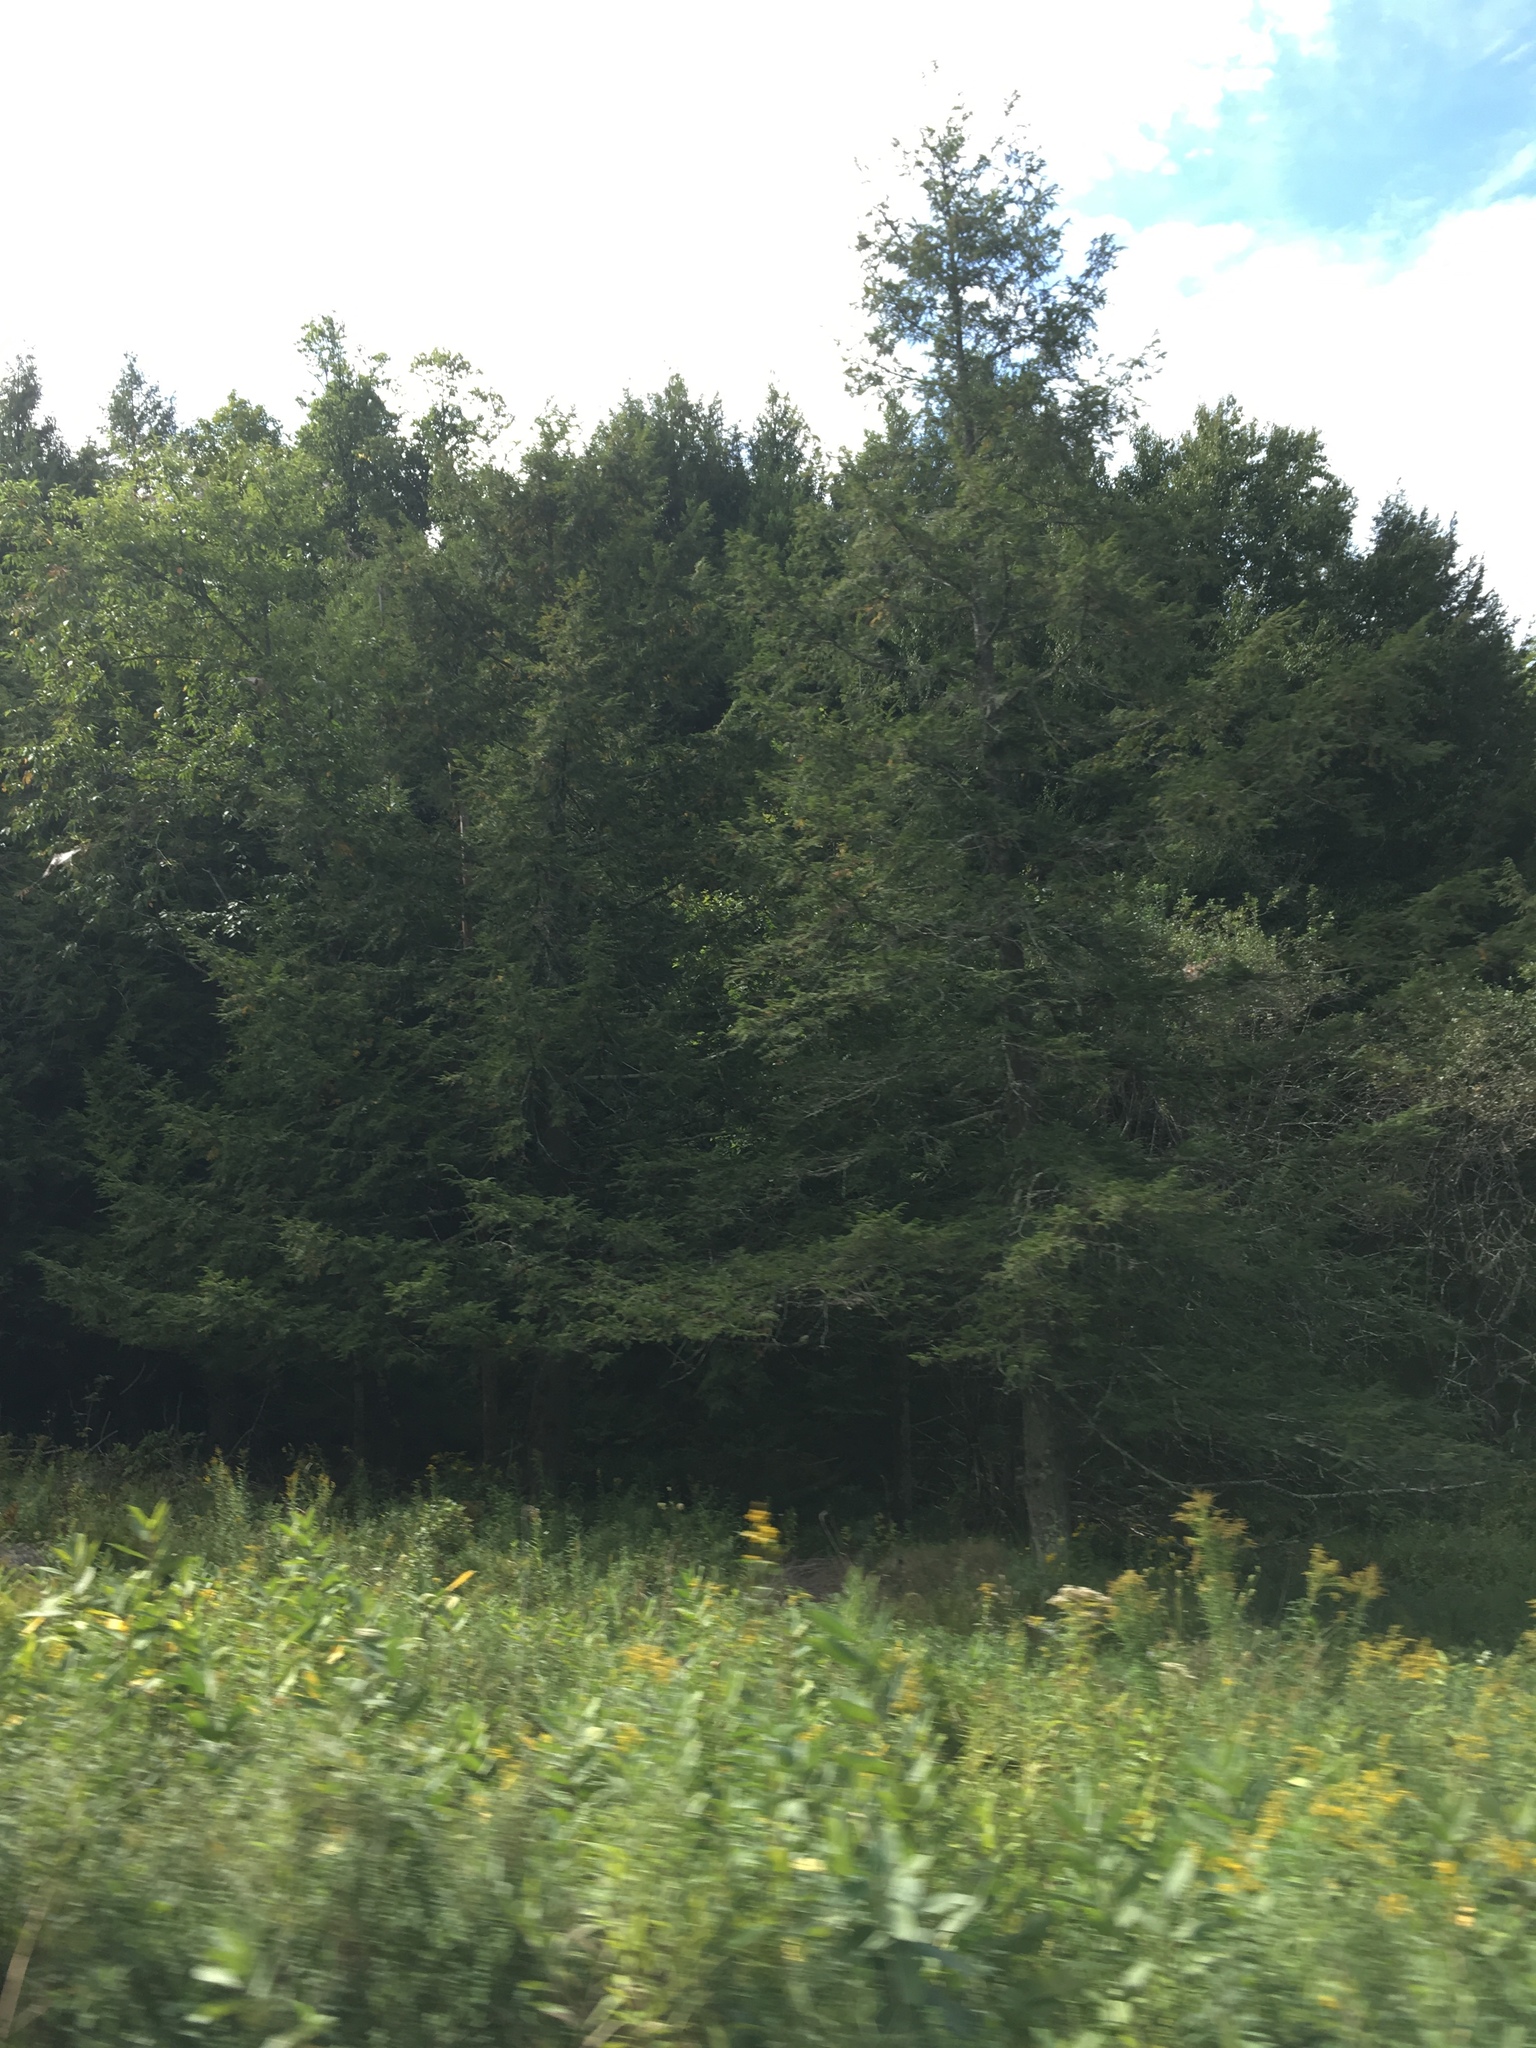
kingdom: Plantae
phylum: Tracheophyta
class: Pinopsida
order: Pinales
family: Pinaceae
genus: Tsuga
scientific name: Tsuga canadensis
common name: Eastern hemlock
